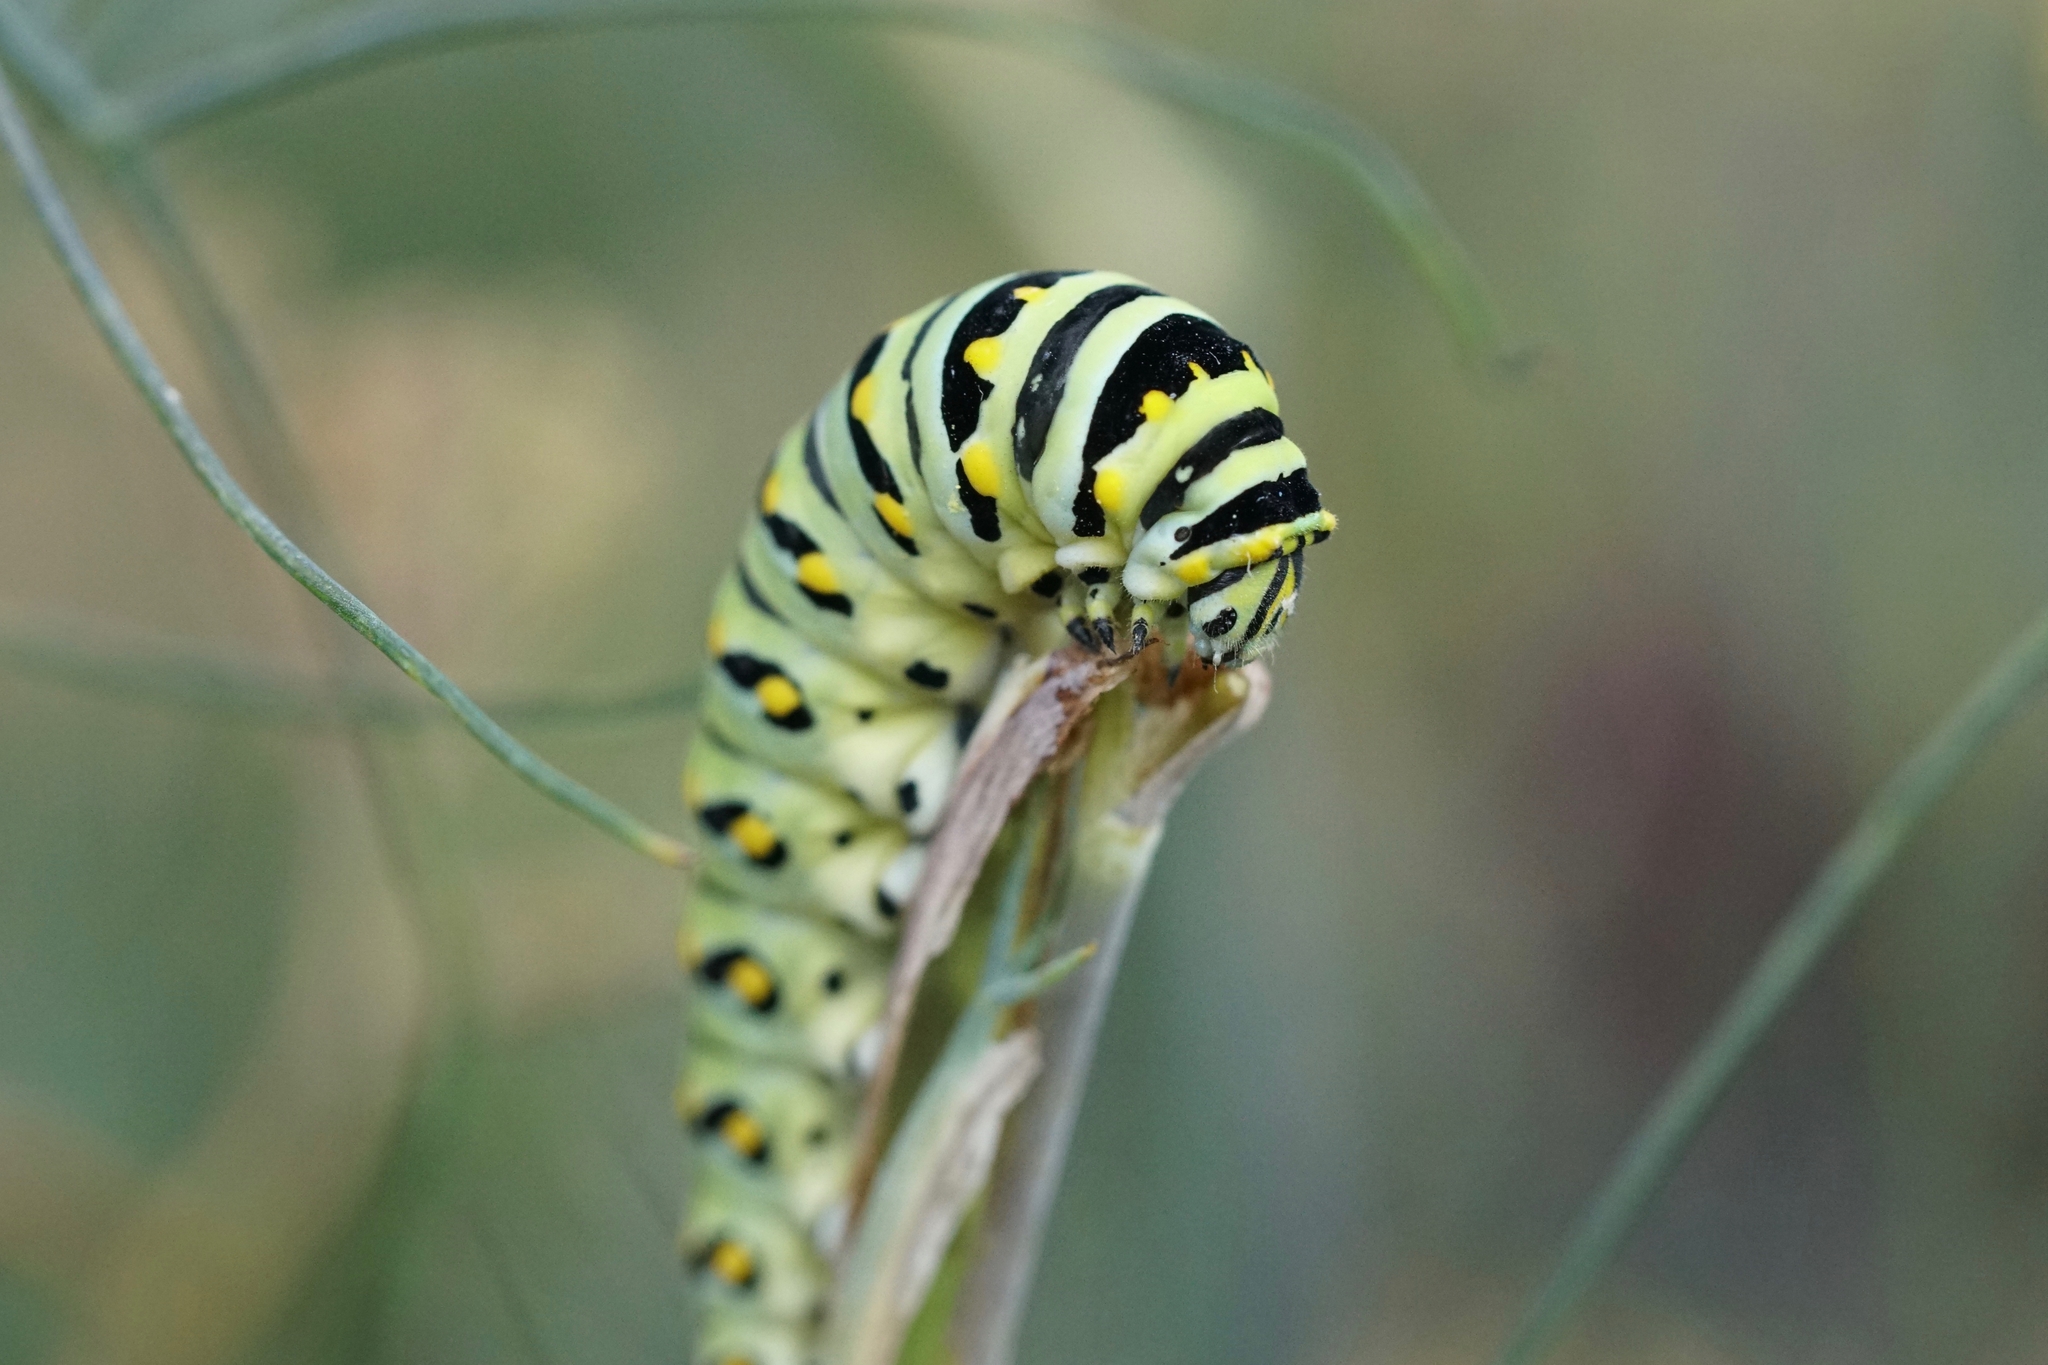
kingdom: Animalia
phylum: Arthropoda
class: Insecta
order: Lepidoptera
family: Papilionidae
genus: Papilio
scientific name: Papilio polyxenes
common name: Black swallowtail
